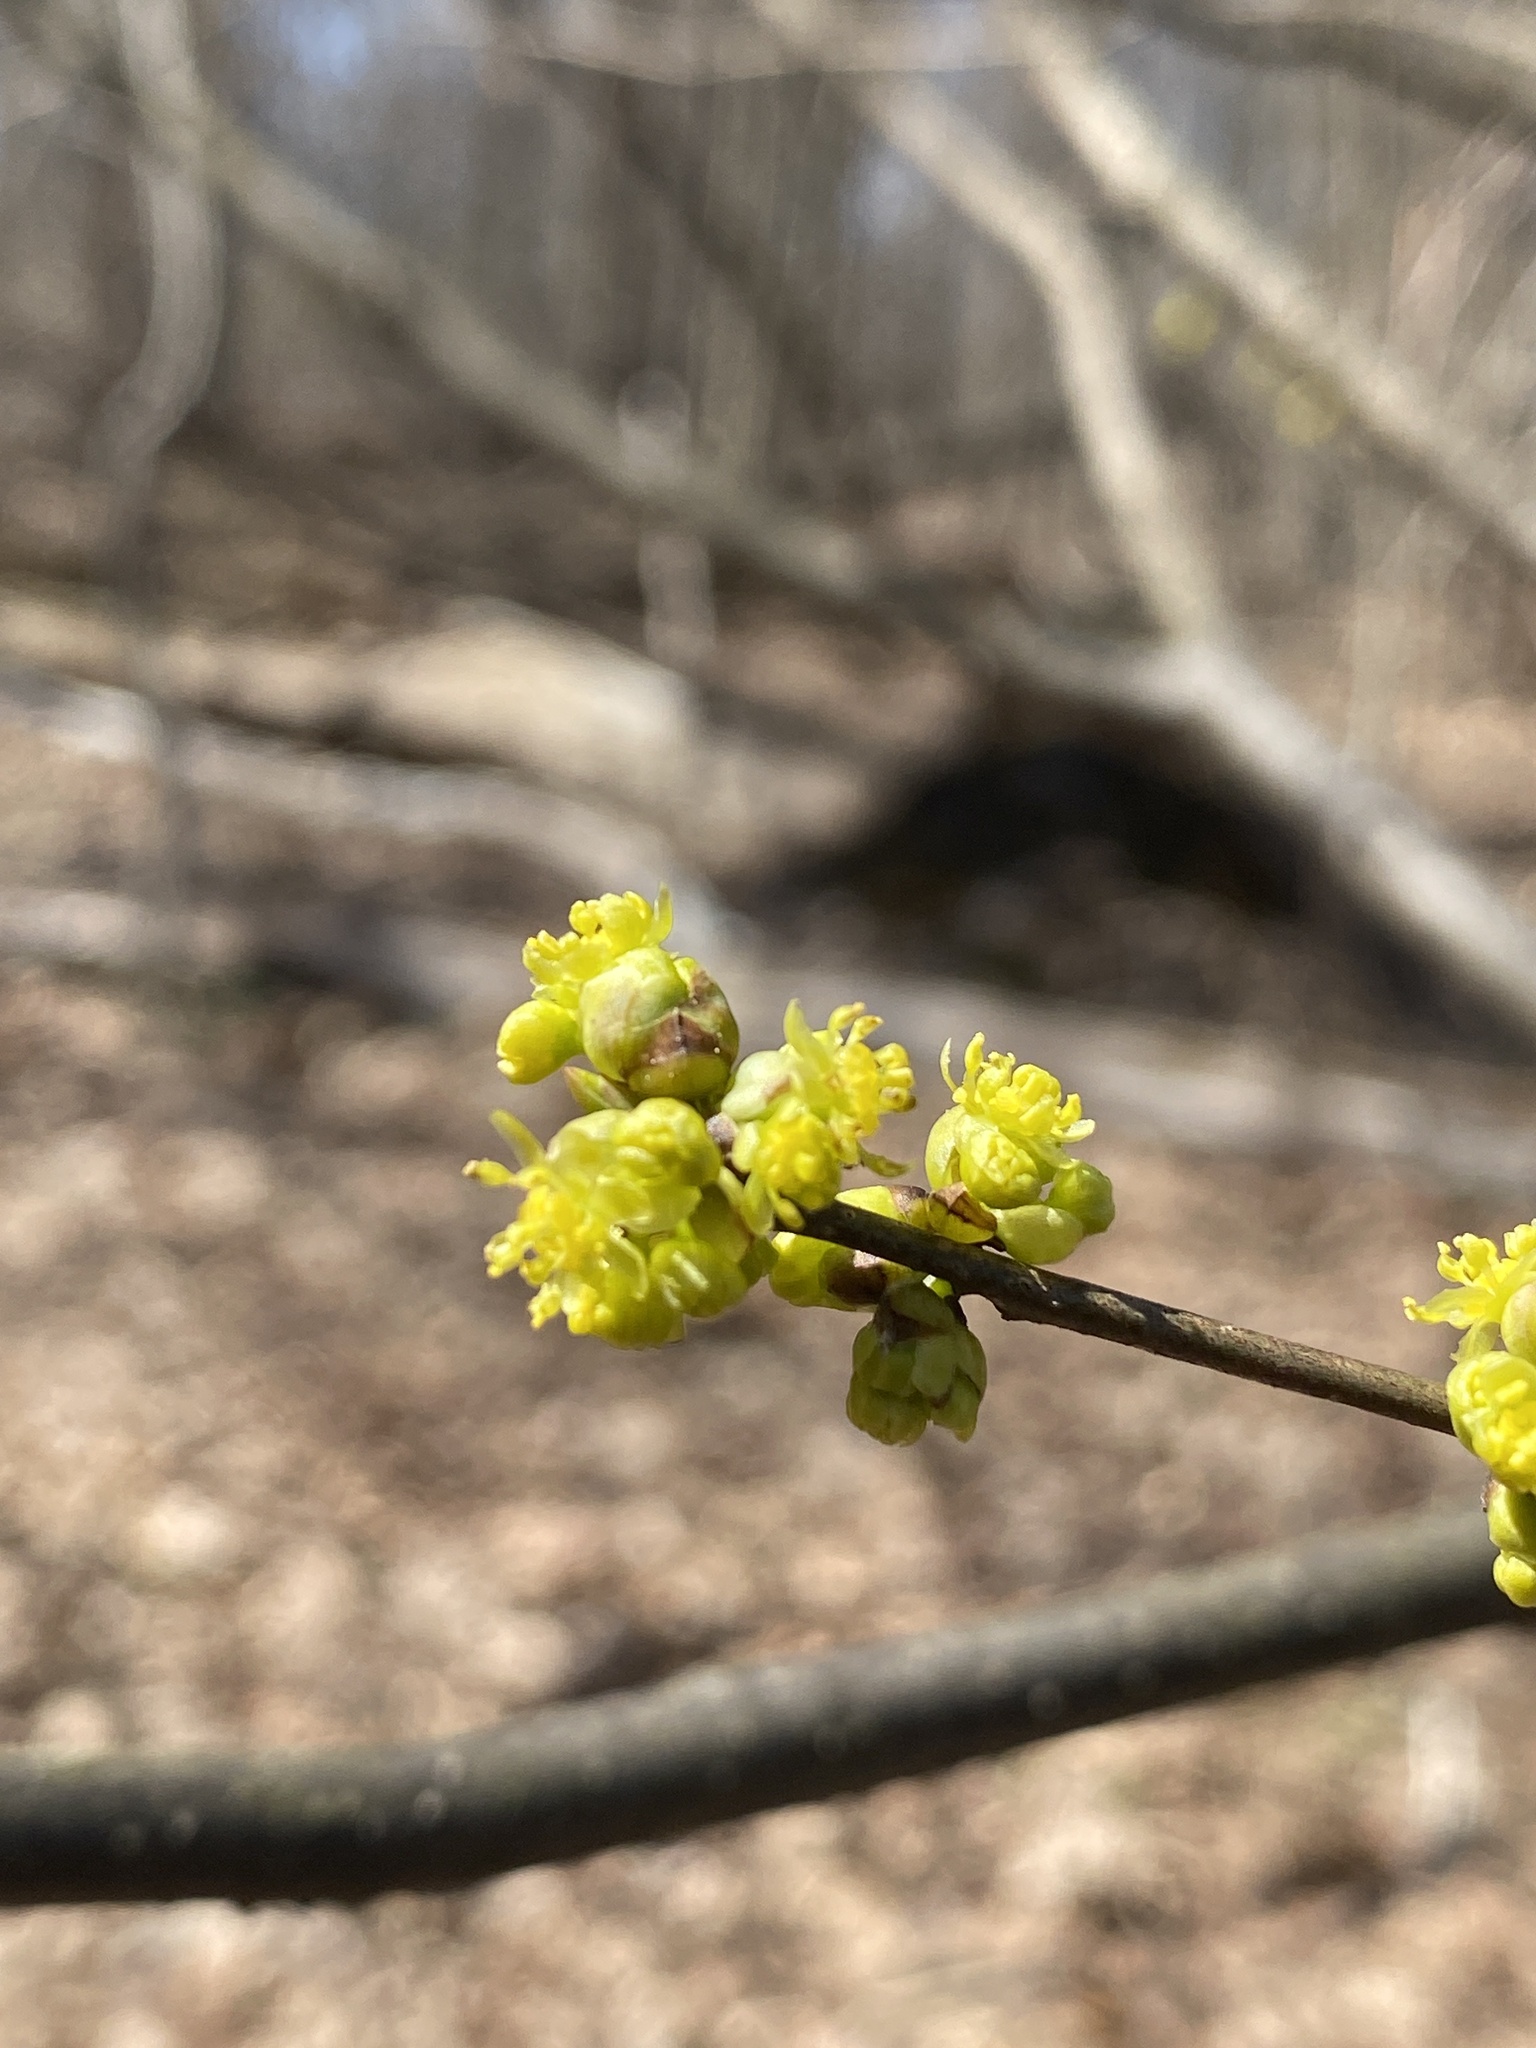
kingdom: Plantae
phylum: Tracheophyta
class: Magnoliopsida
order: Laurales
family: Lauraceae
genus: Lindera
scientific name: Lindera benzoin
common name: Spicebush
